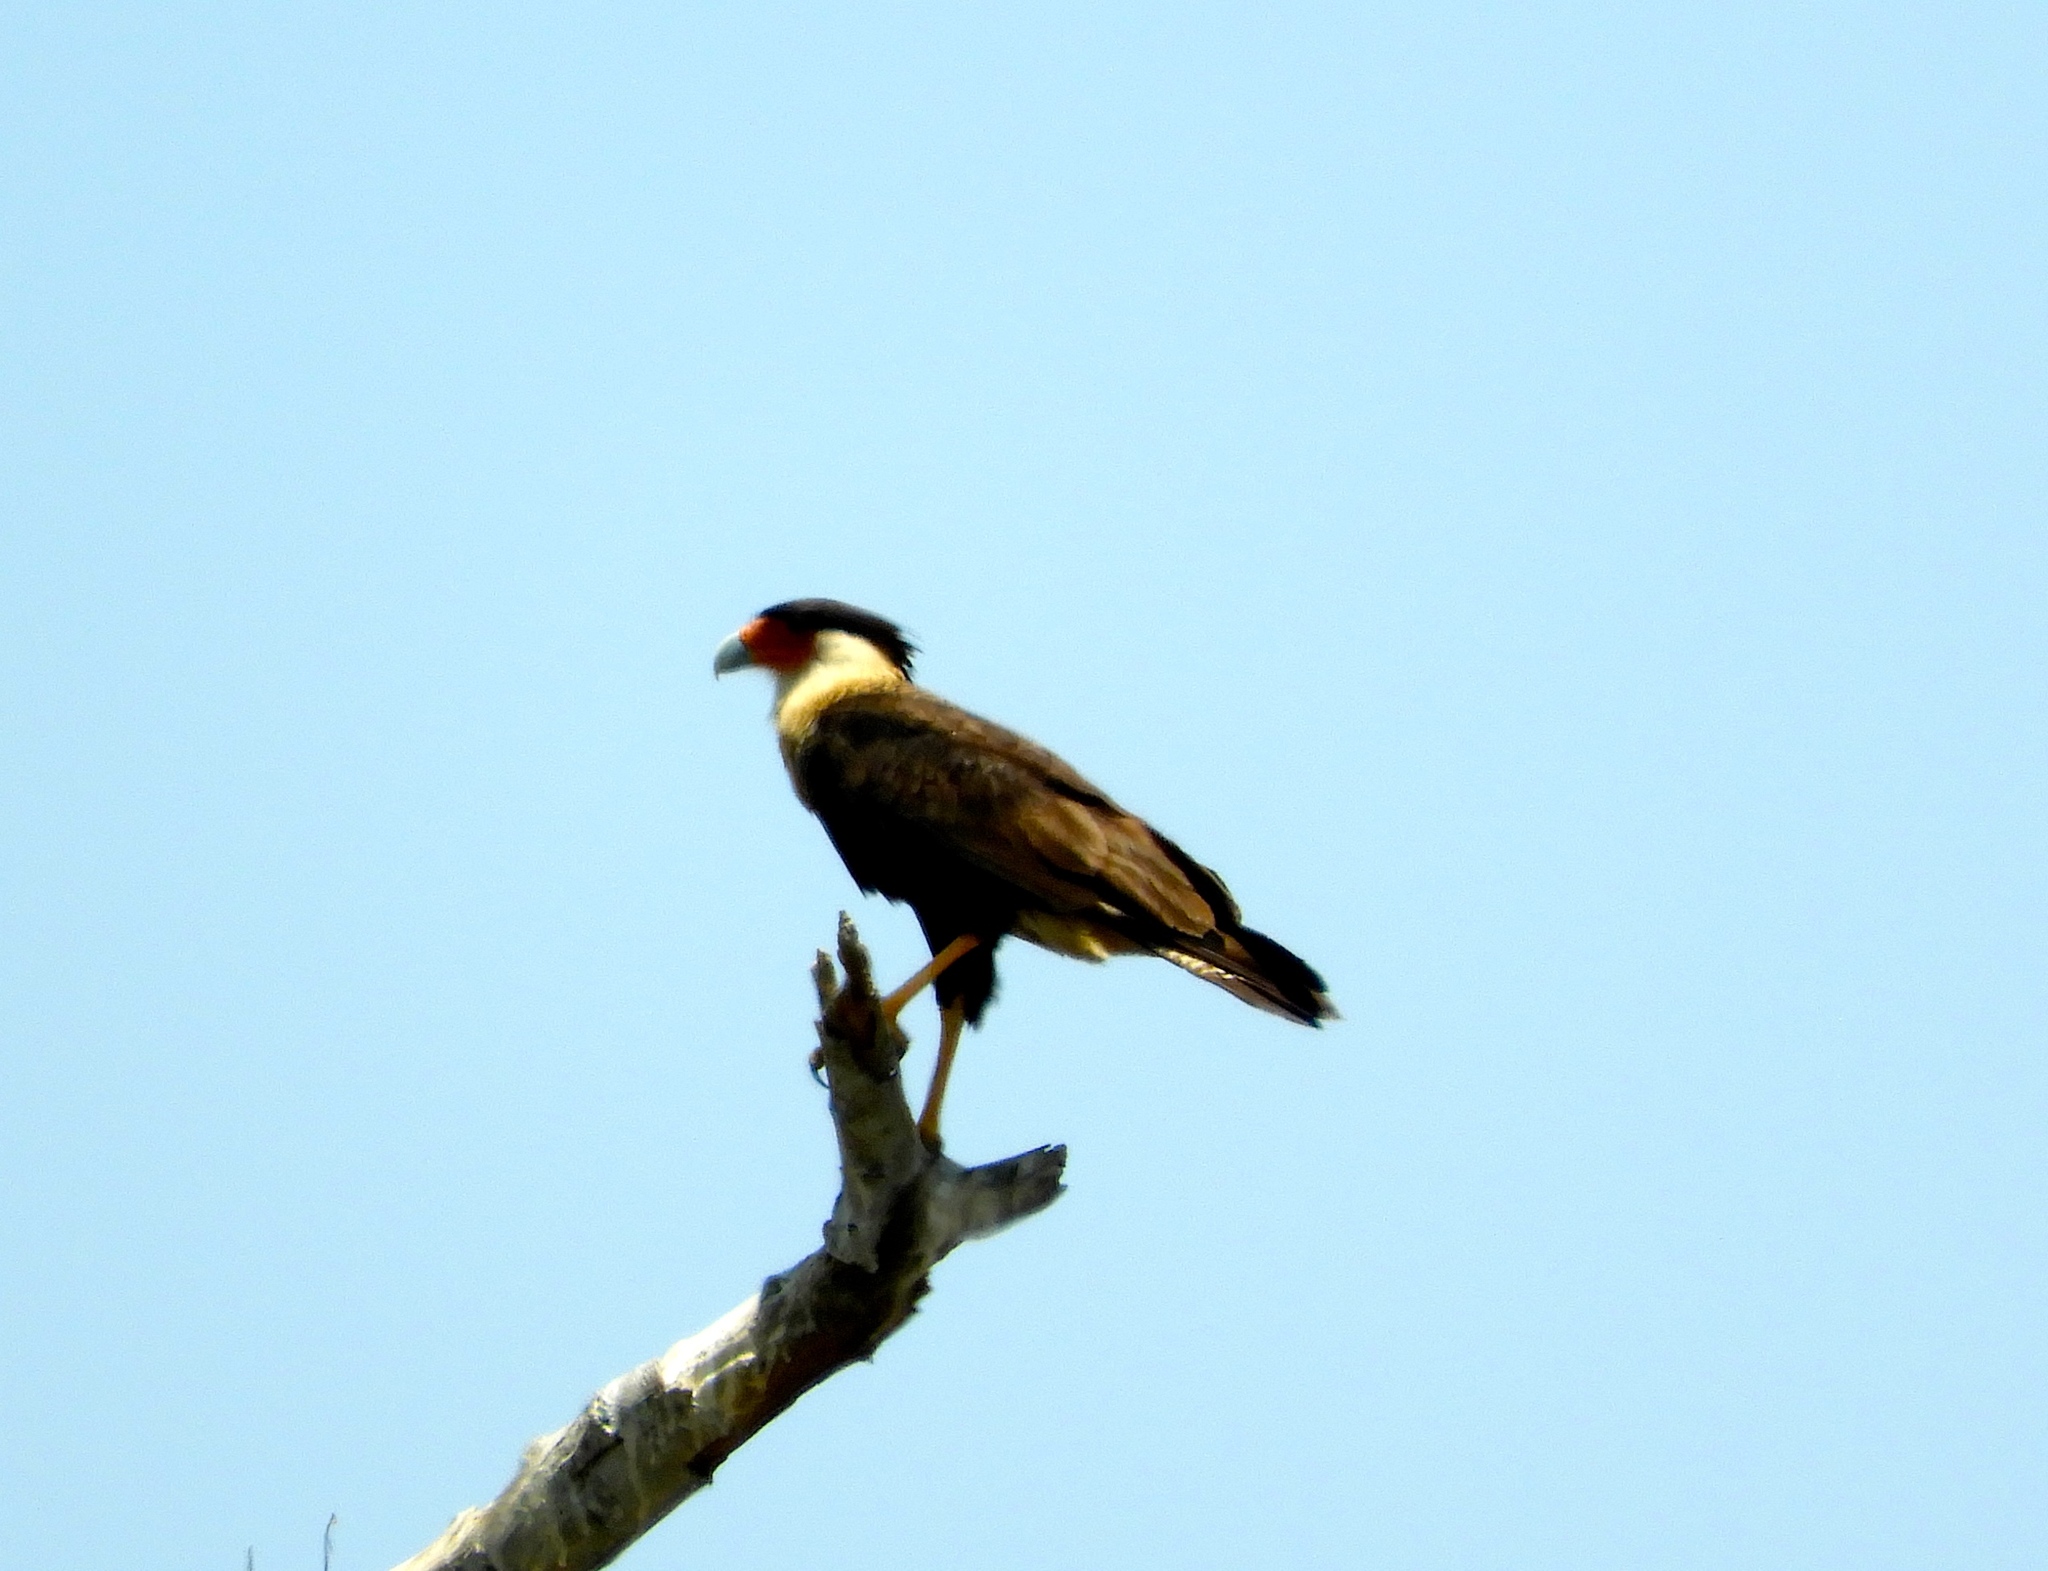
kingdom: Animalia
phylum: Chordata
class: Aves
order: Falconiformes
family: Falconidae
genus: Caracara
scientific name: Caracara plancus
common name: Southern caracara
